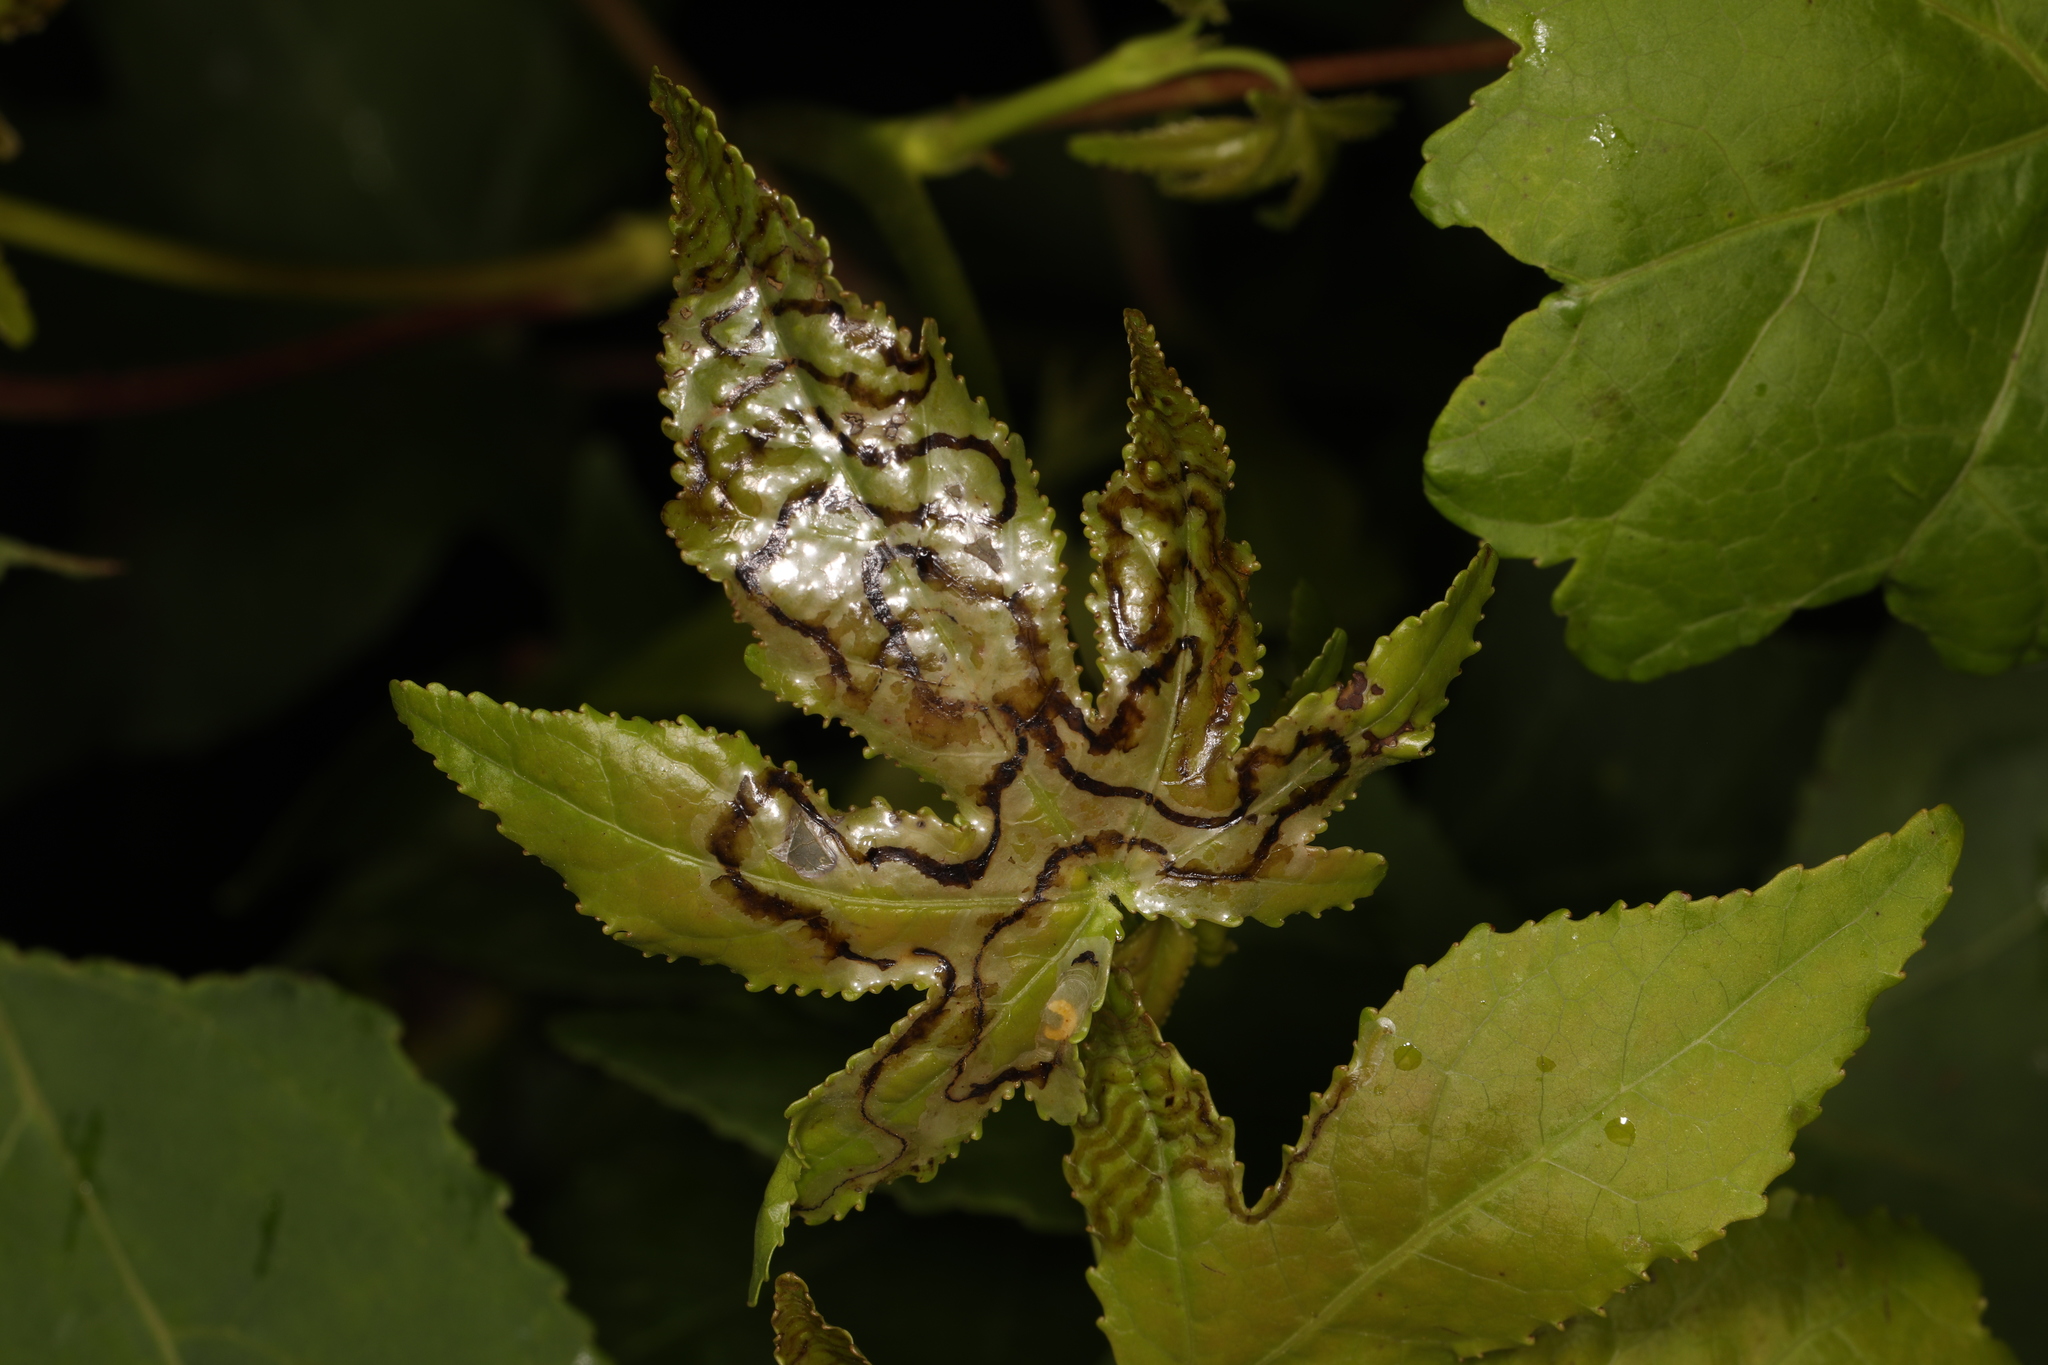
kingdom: Animalia
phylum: Arthropoda
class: Insecta
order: Lepidoptera
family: Gracillariidae
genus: Phyllocnistis
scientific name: Phyllocnistis liquidambarisella
